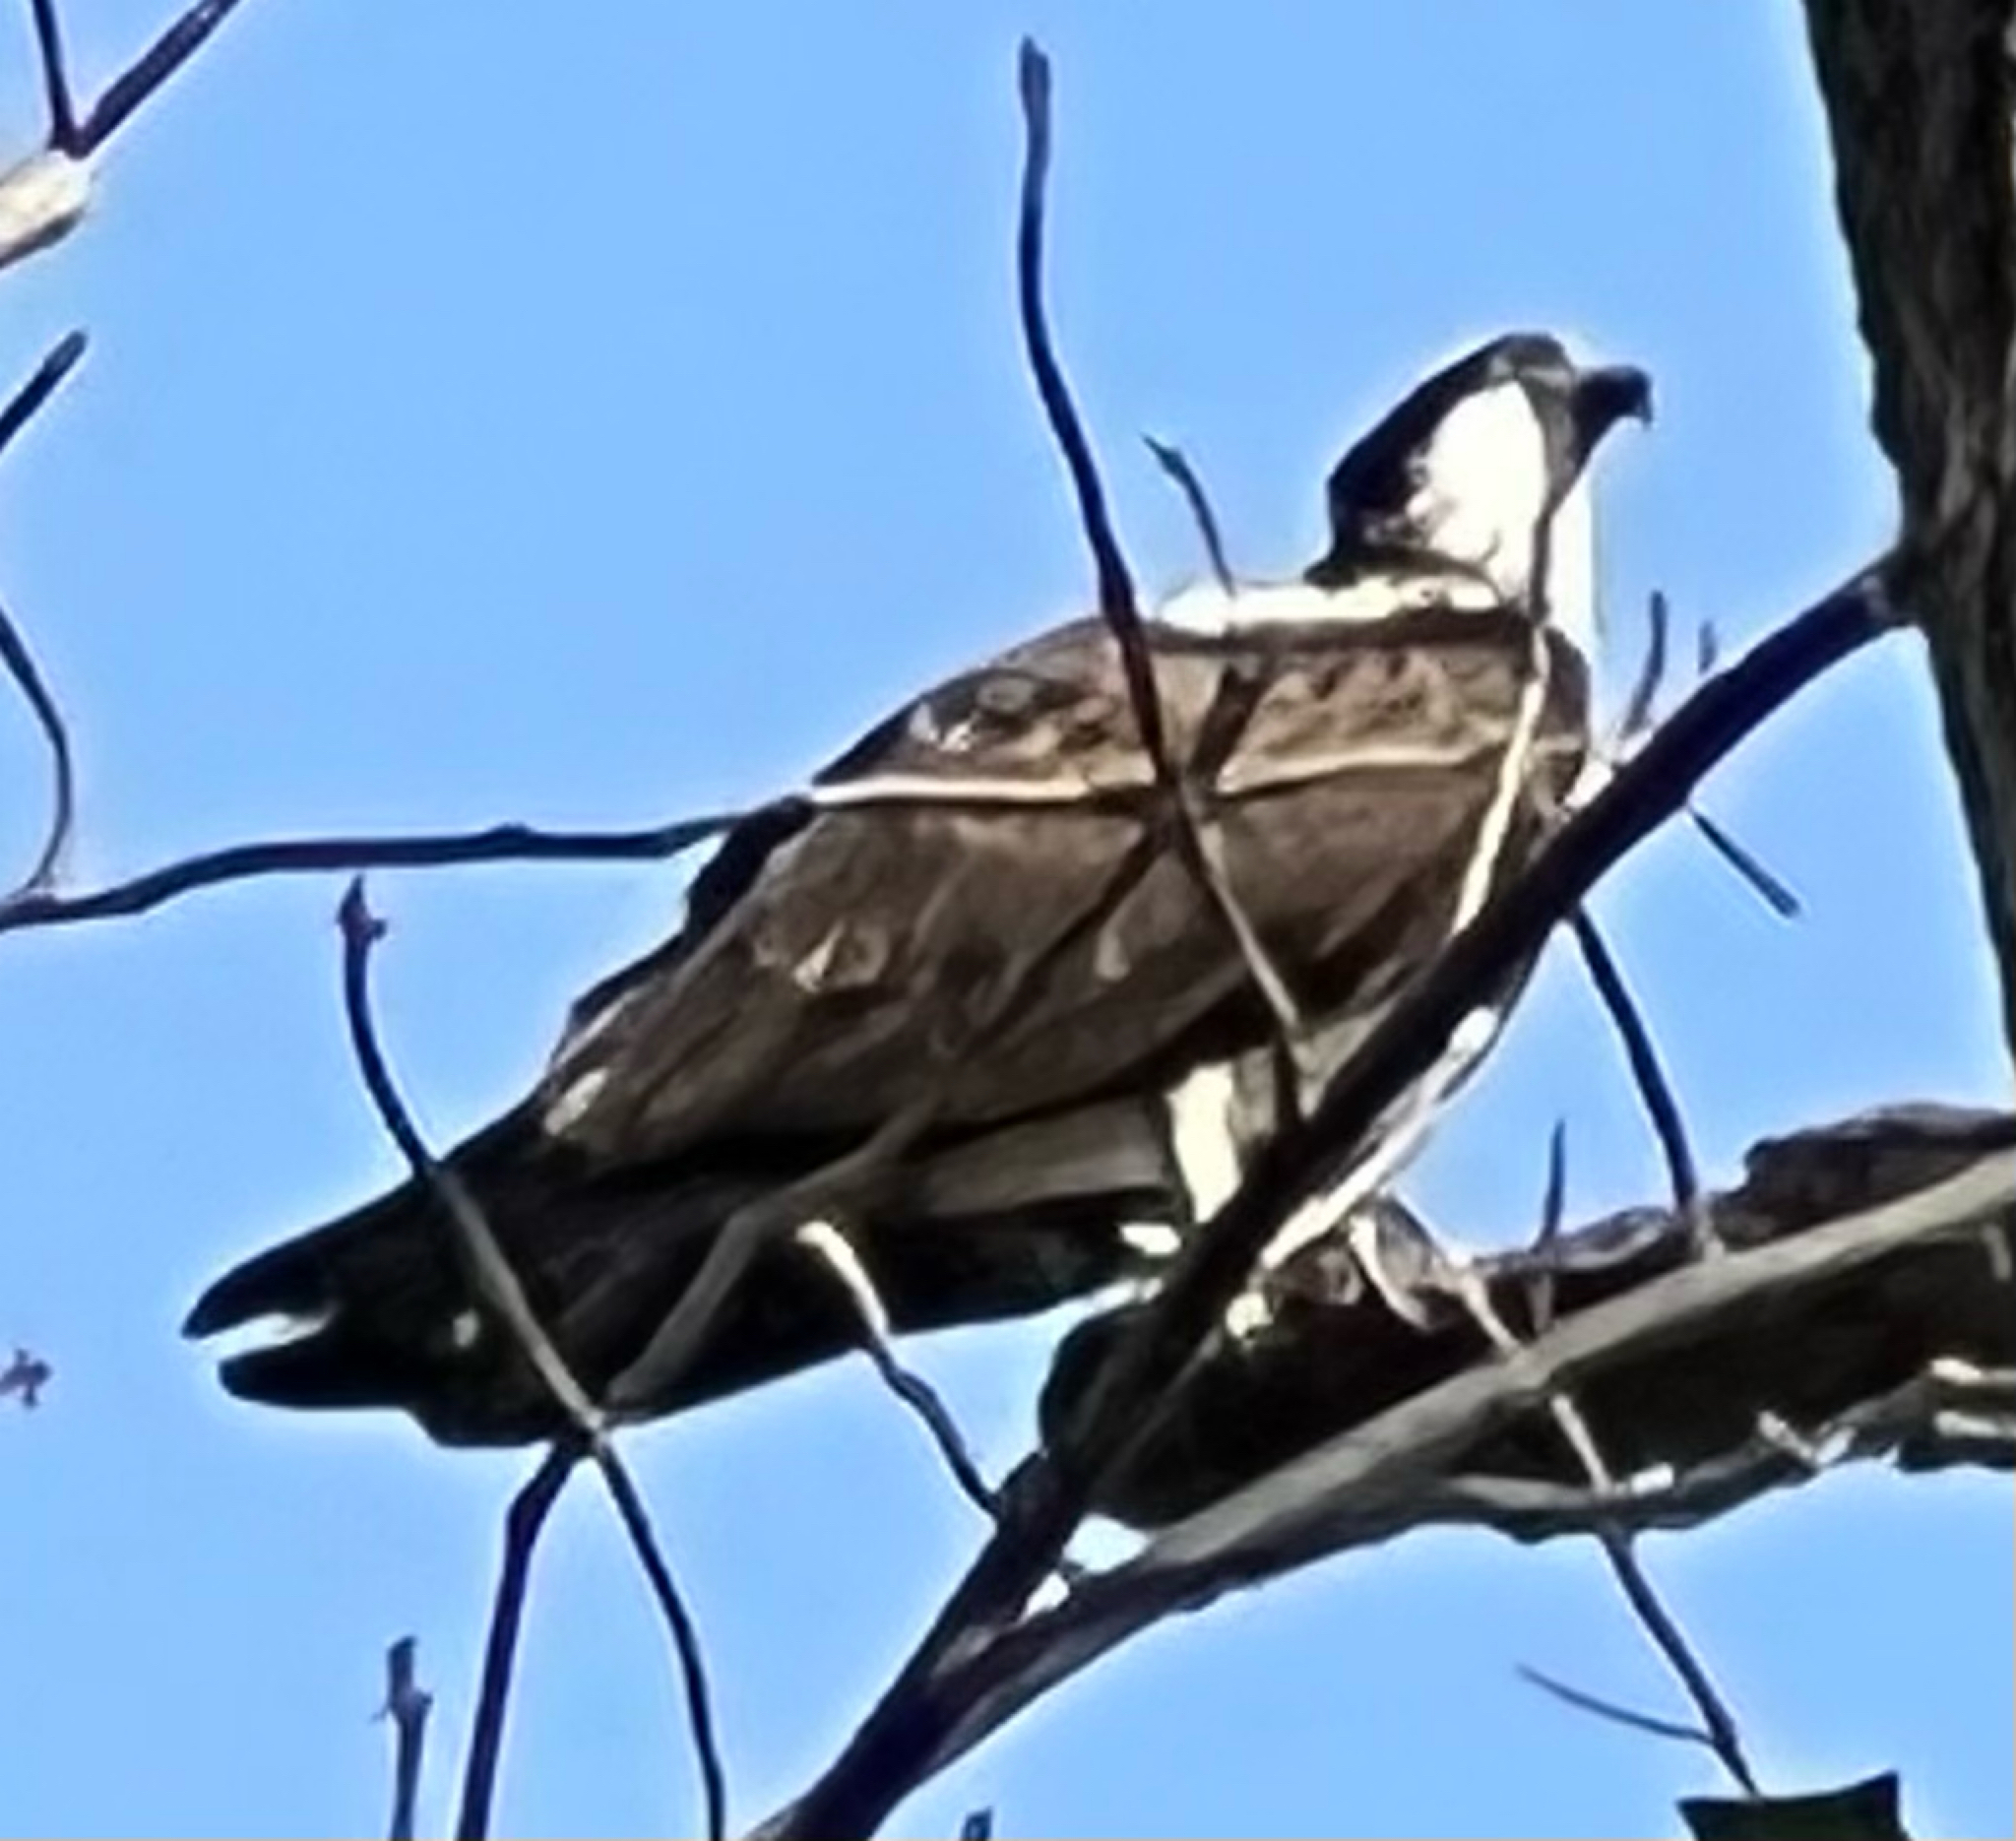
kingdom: Animalia
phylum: Chordata
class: Aves
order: Accipitriformes
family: Pandionidae
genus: Pandion
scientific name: Pandion haliaetus
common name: Osprey
